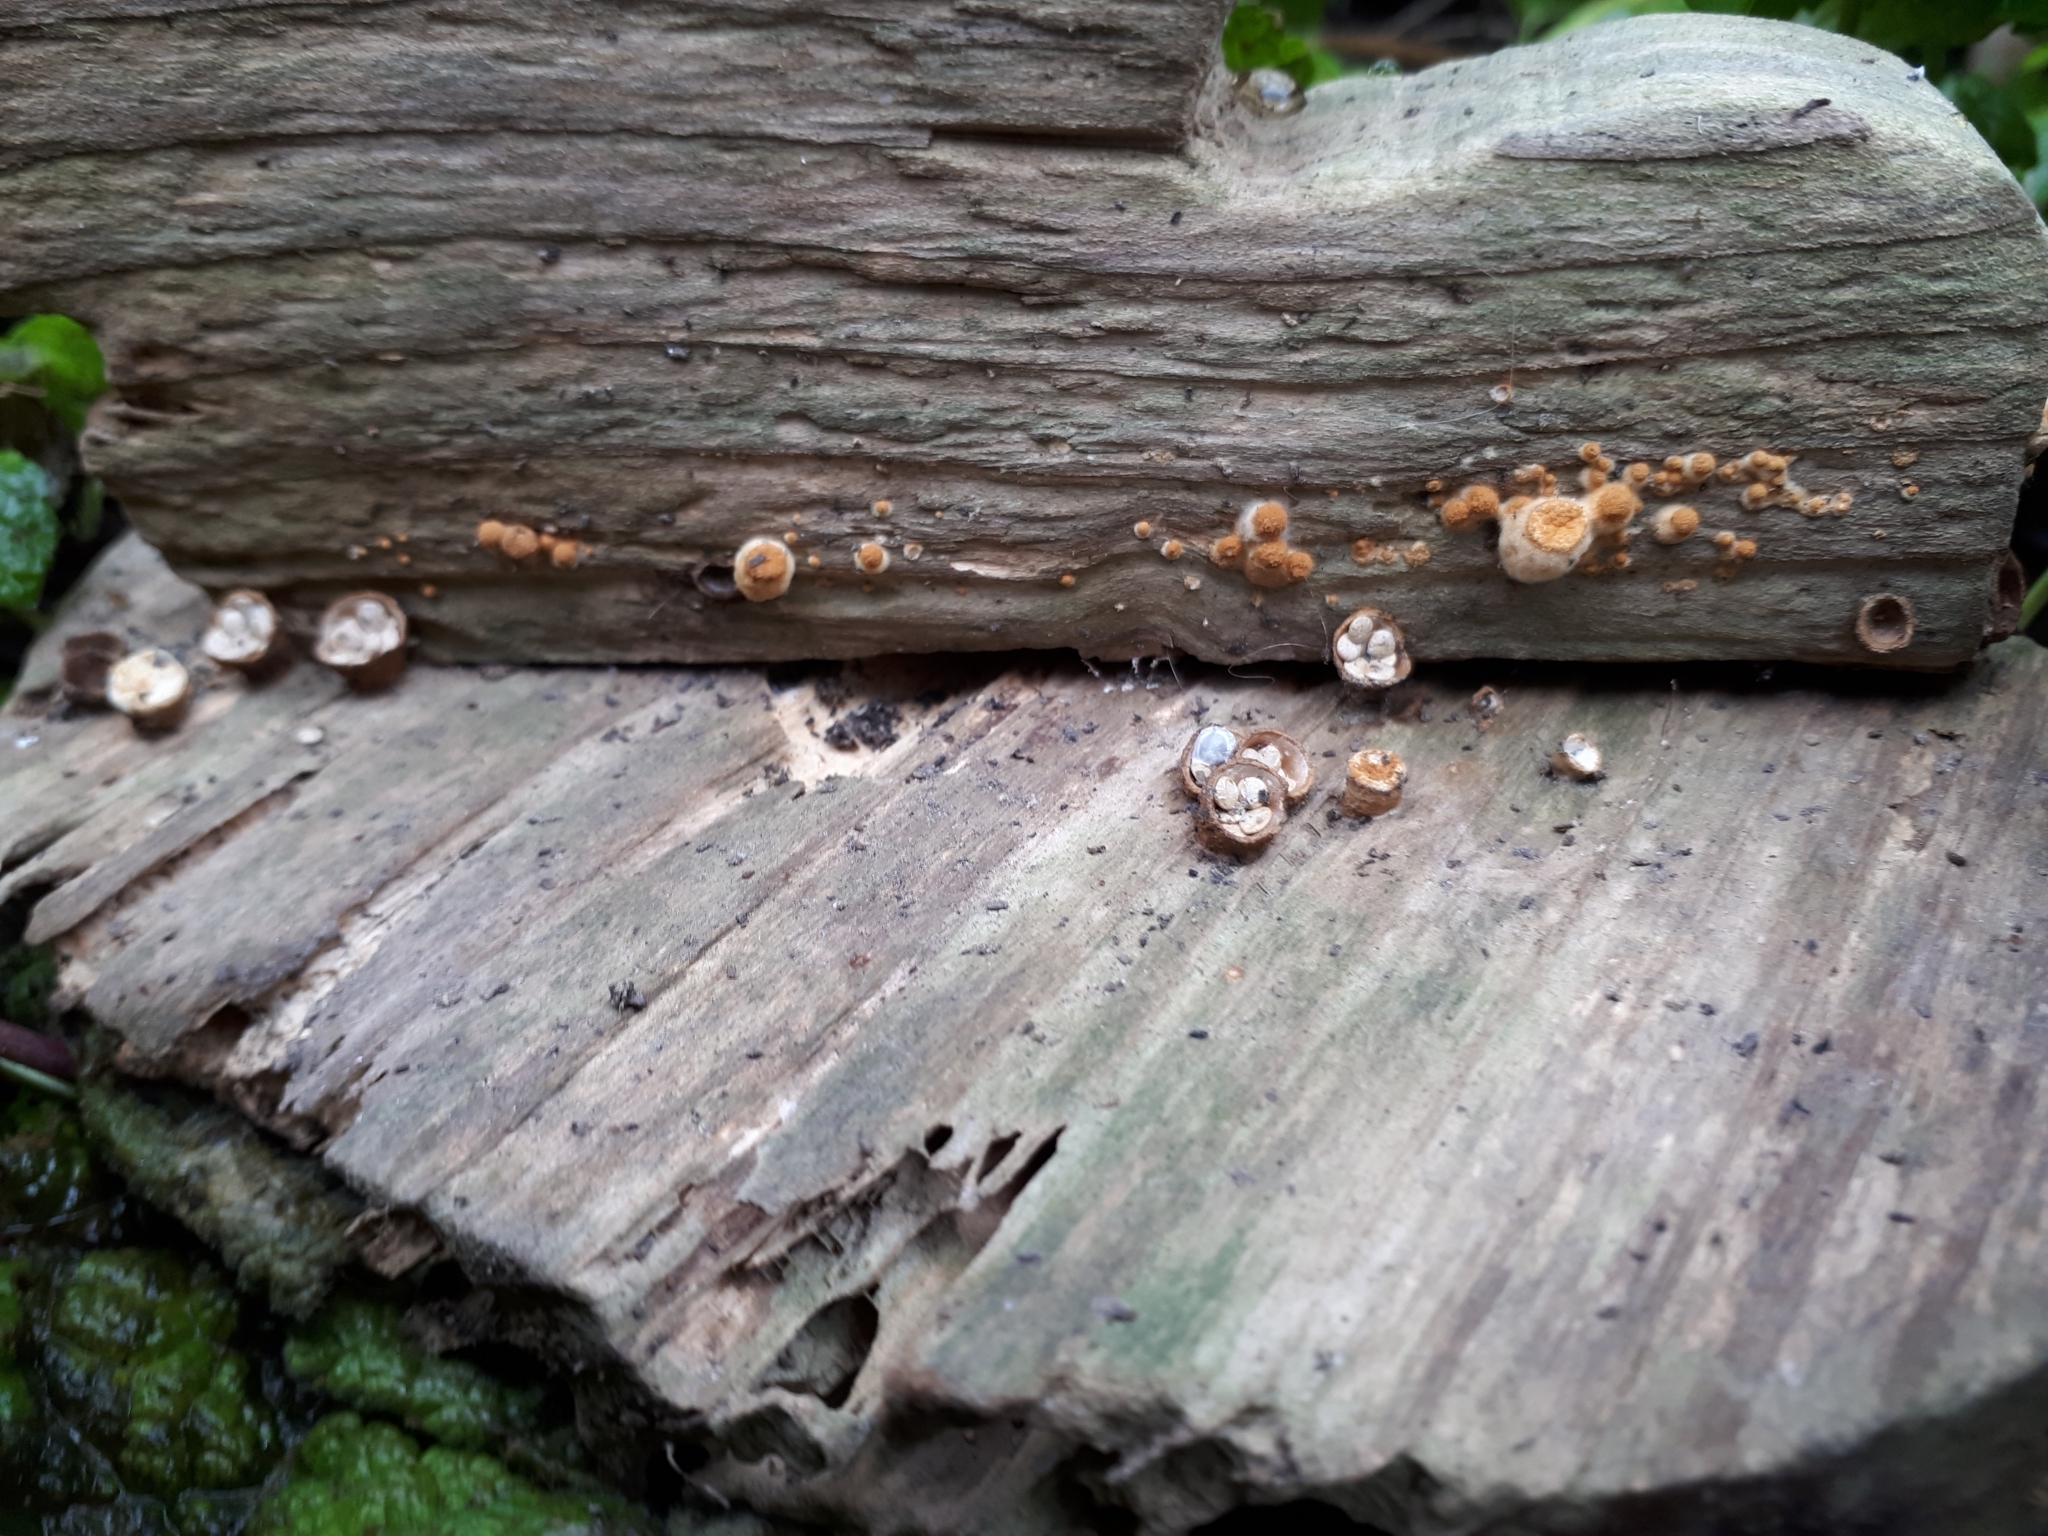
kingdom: Fungi
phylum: Basidiomycota
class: Agaricomycetes
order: Agaricales
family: Nidulariaceae
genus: Crucibulum
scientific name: Crucibulum laeve
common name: Common bird's nest
